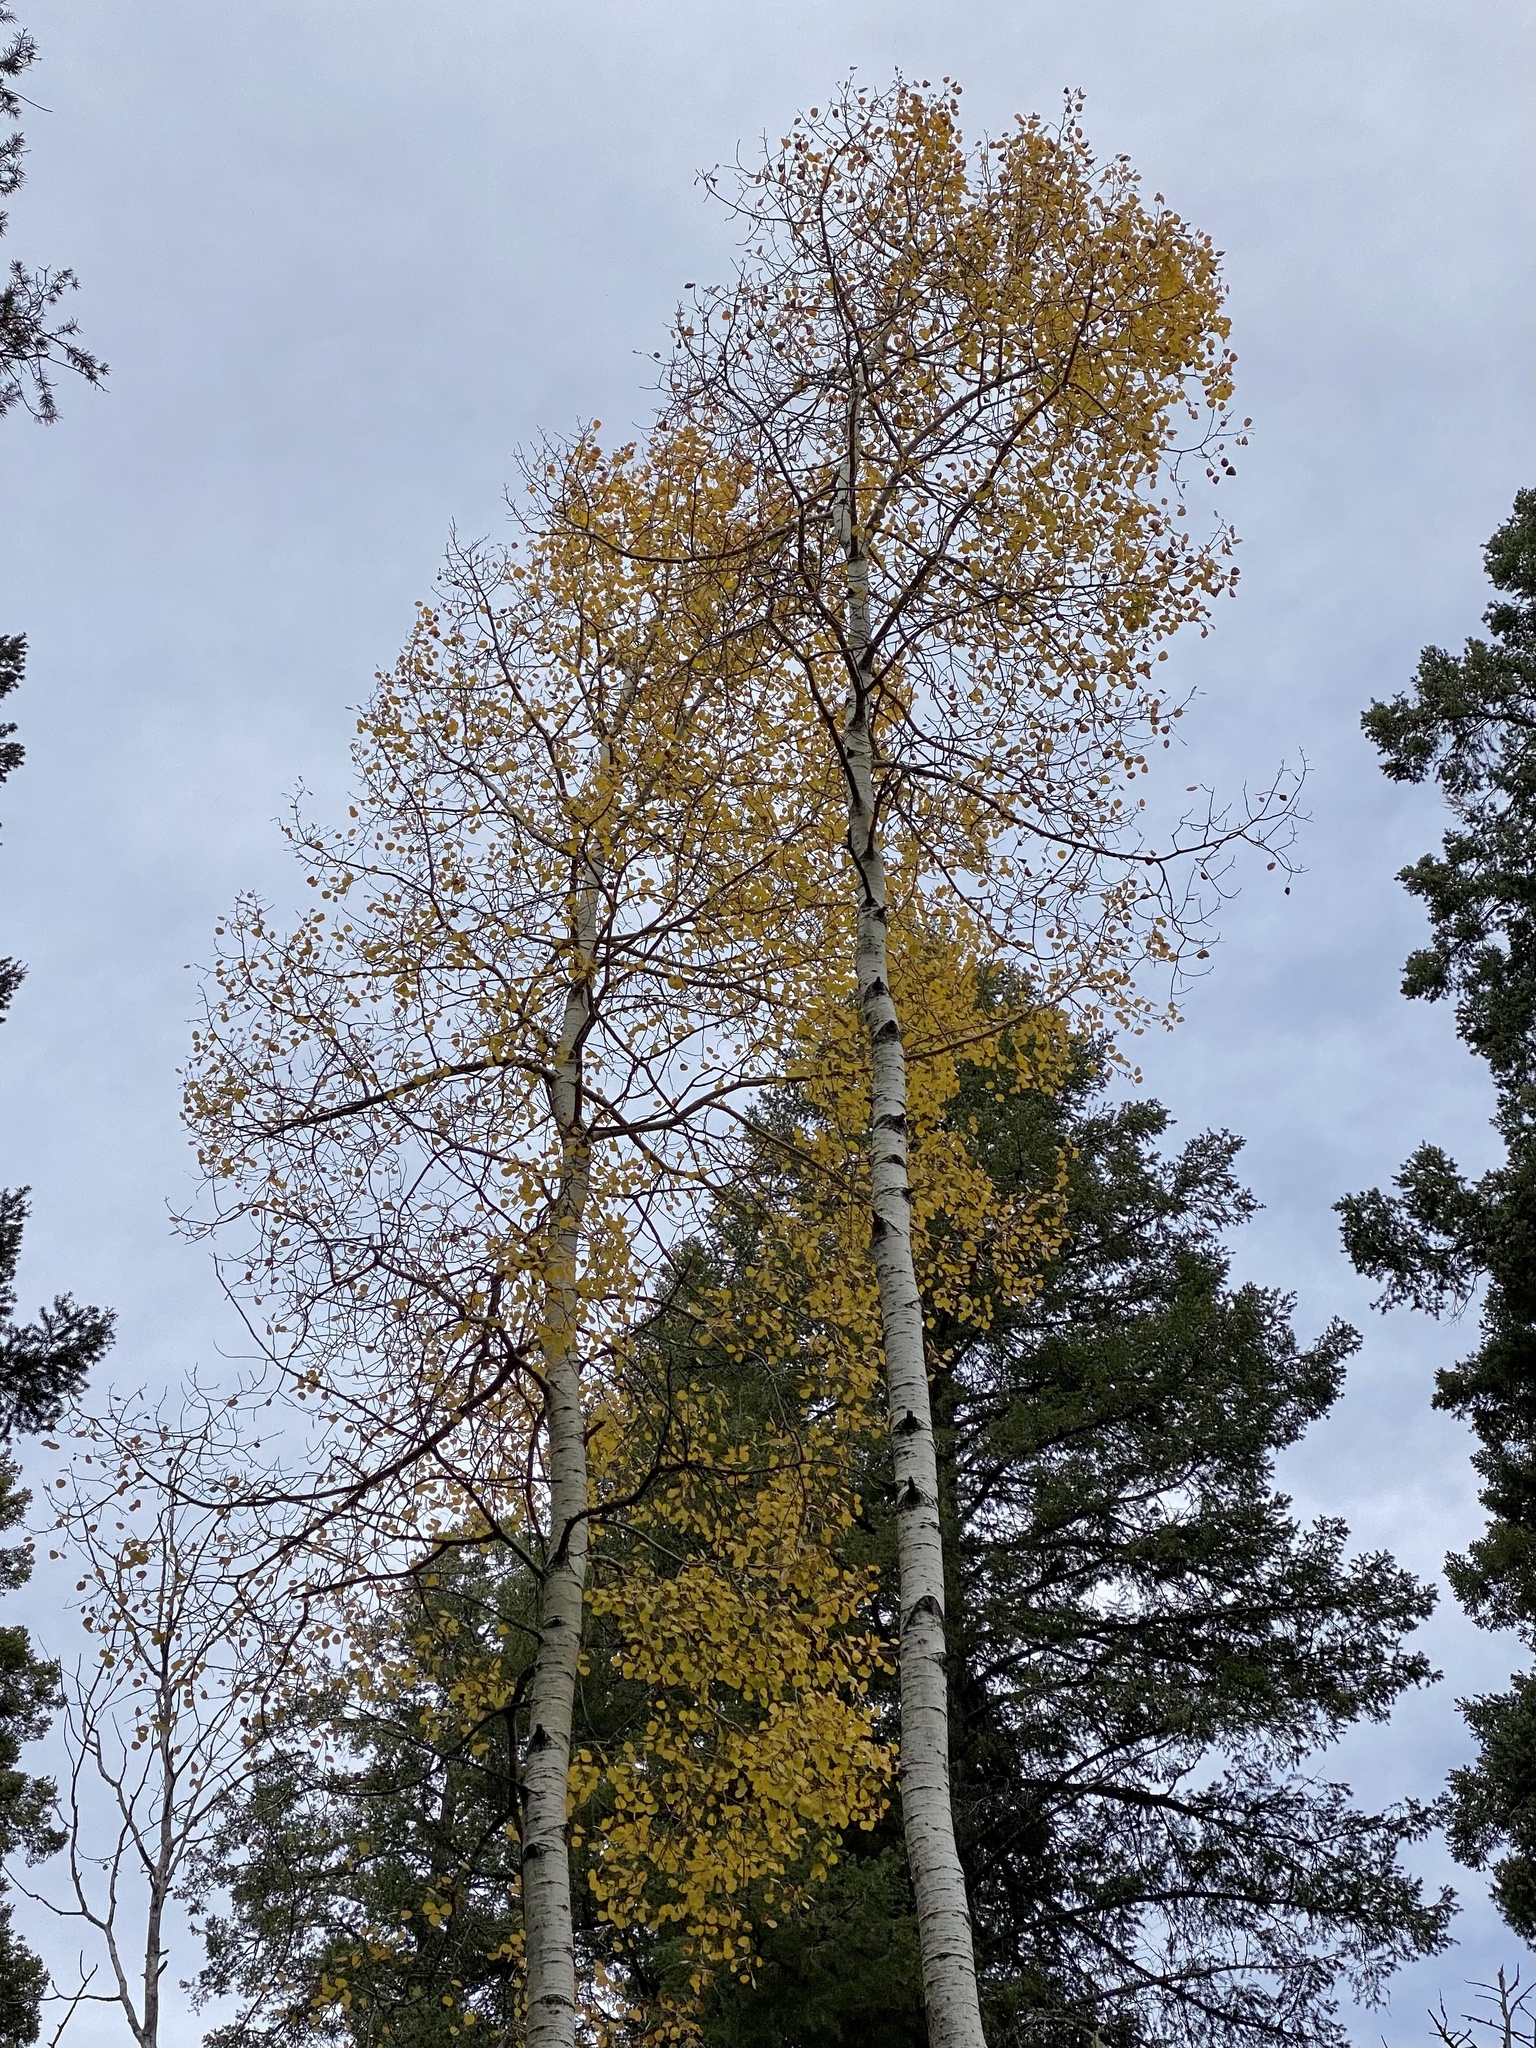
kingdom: Plantae
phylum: Tracheophyta
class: Magnoliopsida
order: Malpighiales
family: Salicaceae
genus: Populus
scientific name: Populus tremuloides
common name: Quaking aspen
